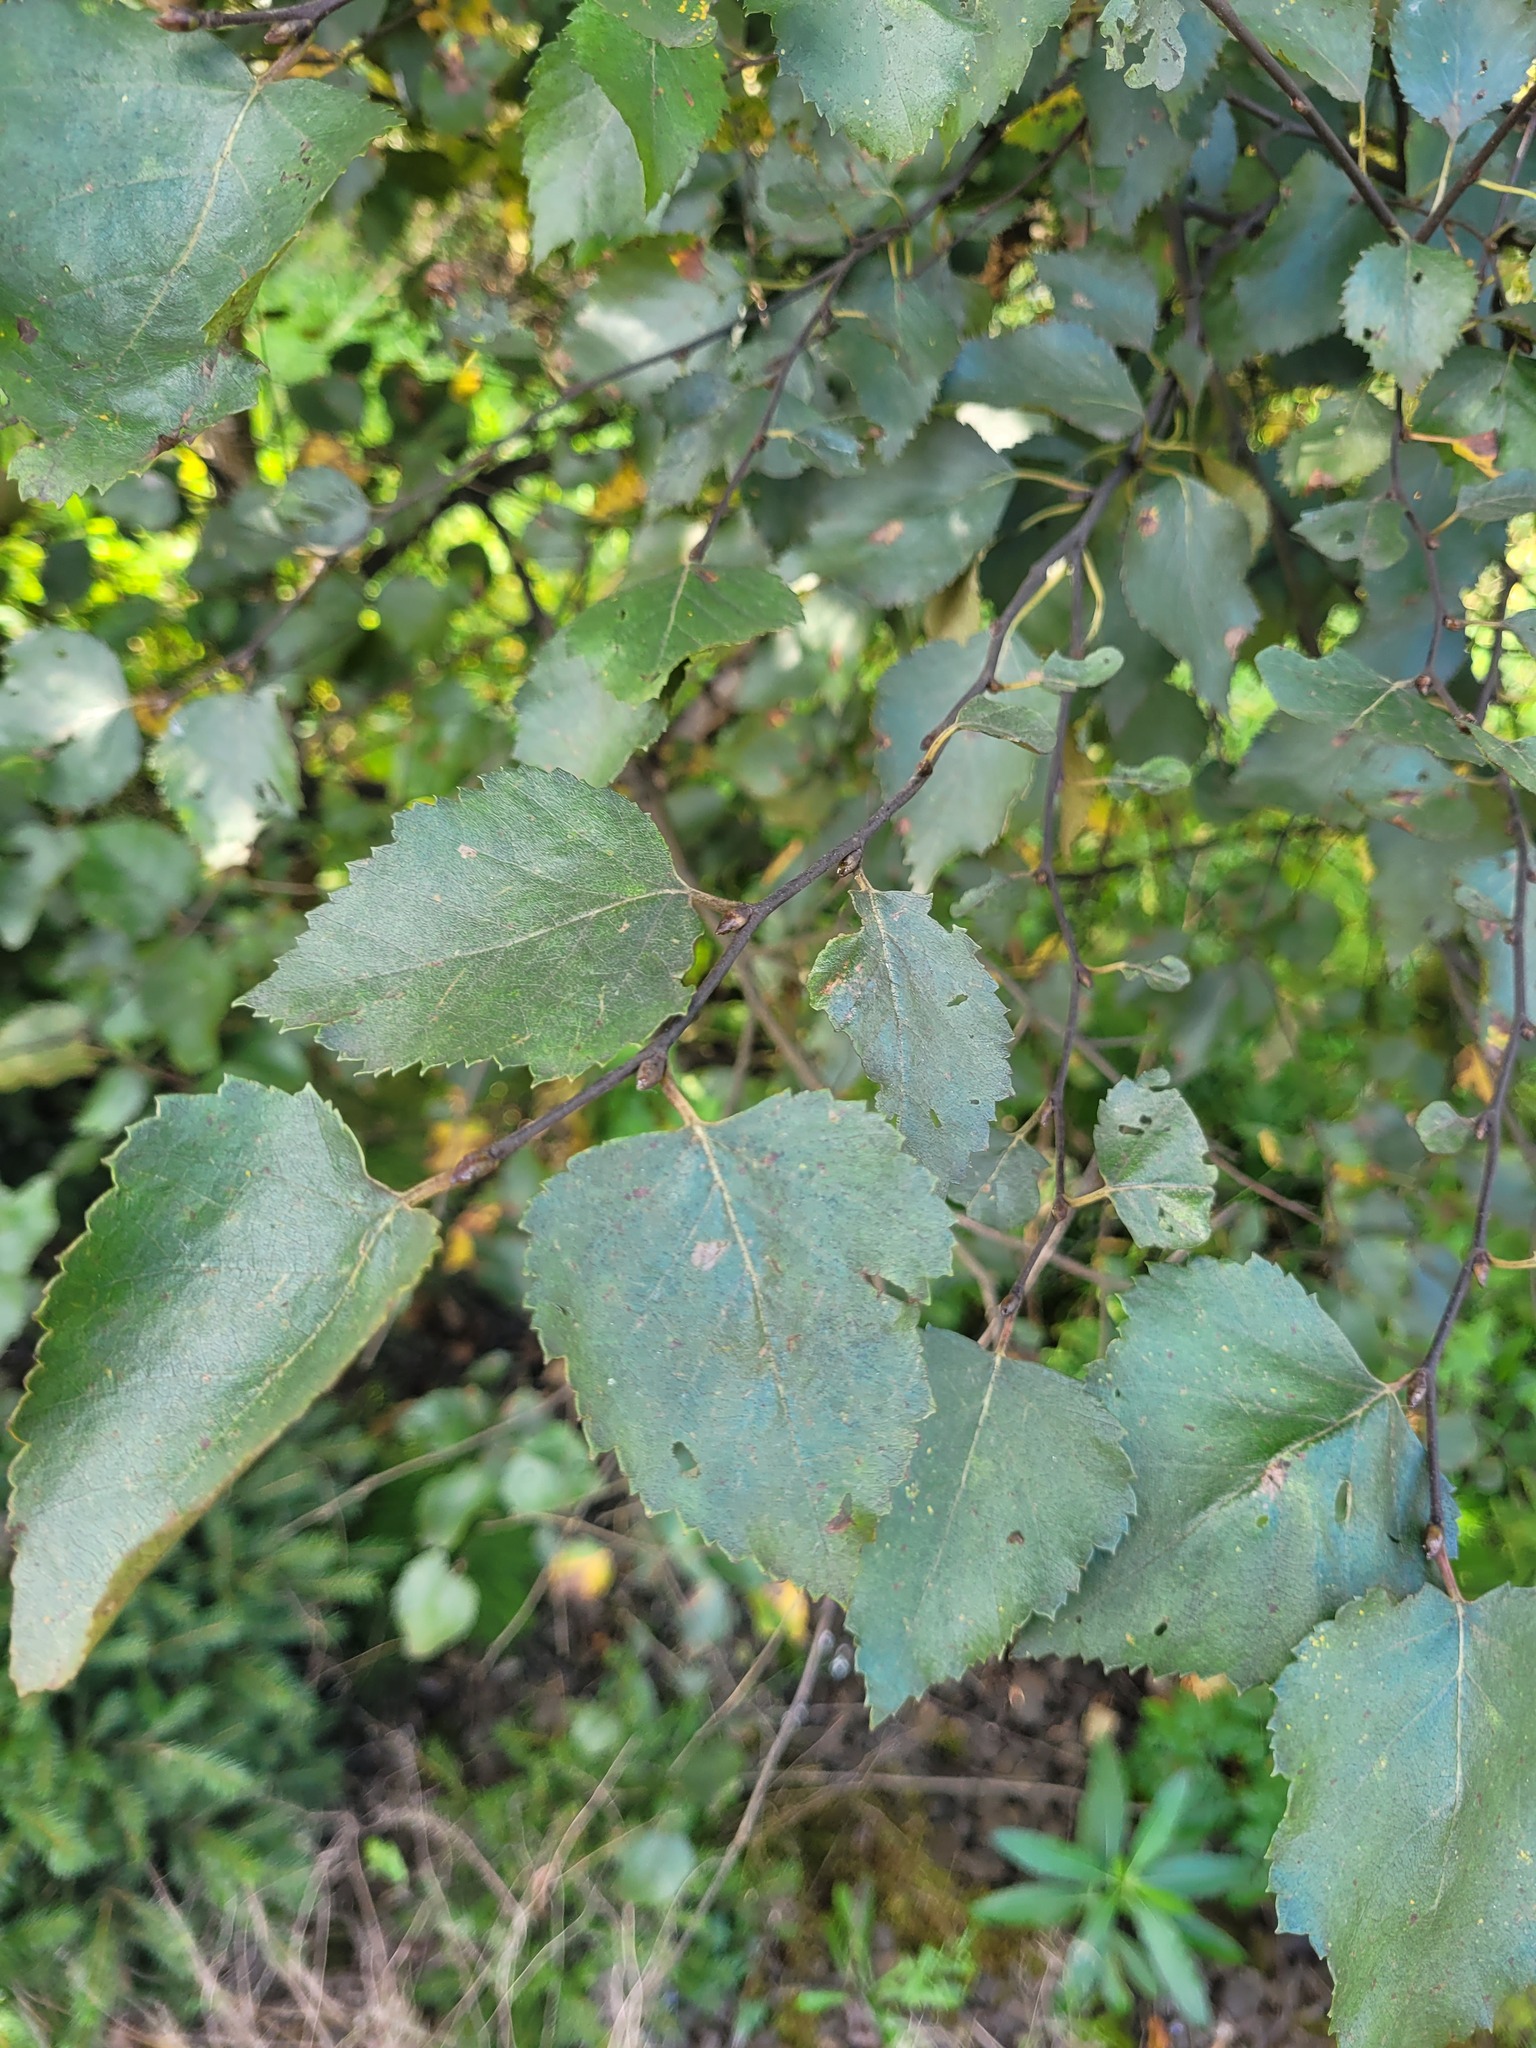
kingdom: Plantae
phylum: Tracheophyta
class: Magnoliopsida
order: Fagales
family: Betulaceae
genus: Betula
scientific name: Betula pendula
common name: Silver birch
